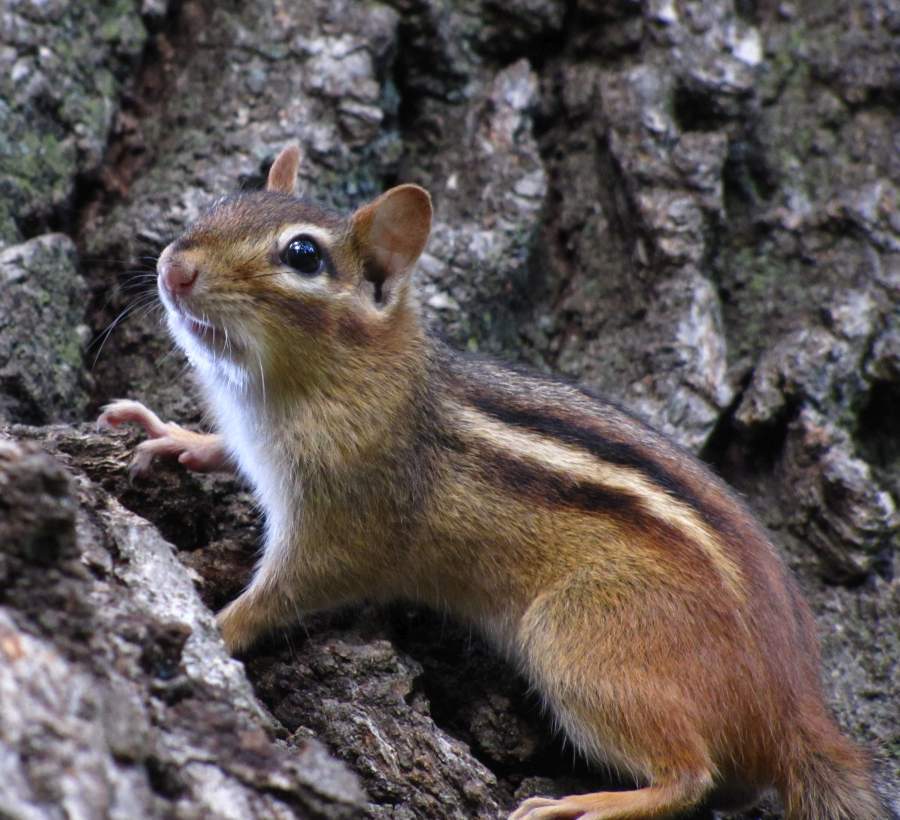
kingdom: Animalia
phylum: Chordata
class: Mammalia
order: Rodentia
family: Sciuridae
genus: Tamias
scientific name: Tamias striatus
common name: Eastern chipmunk
